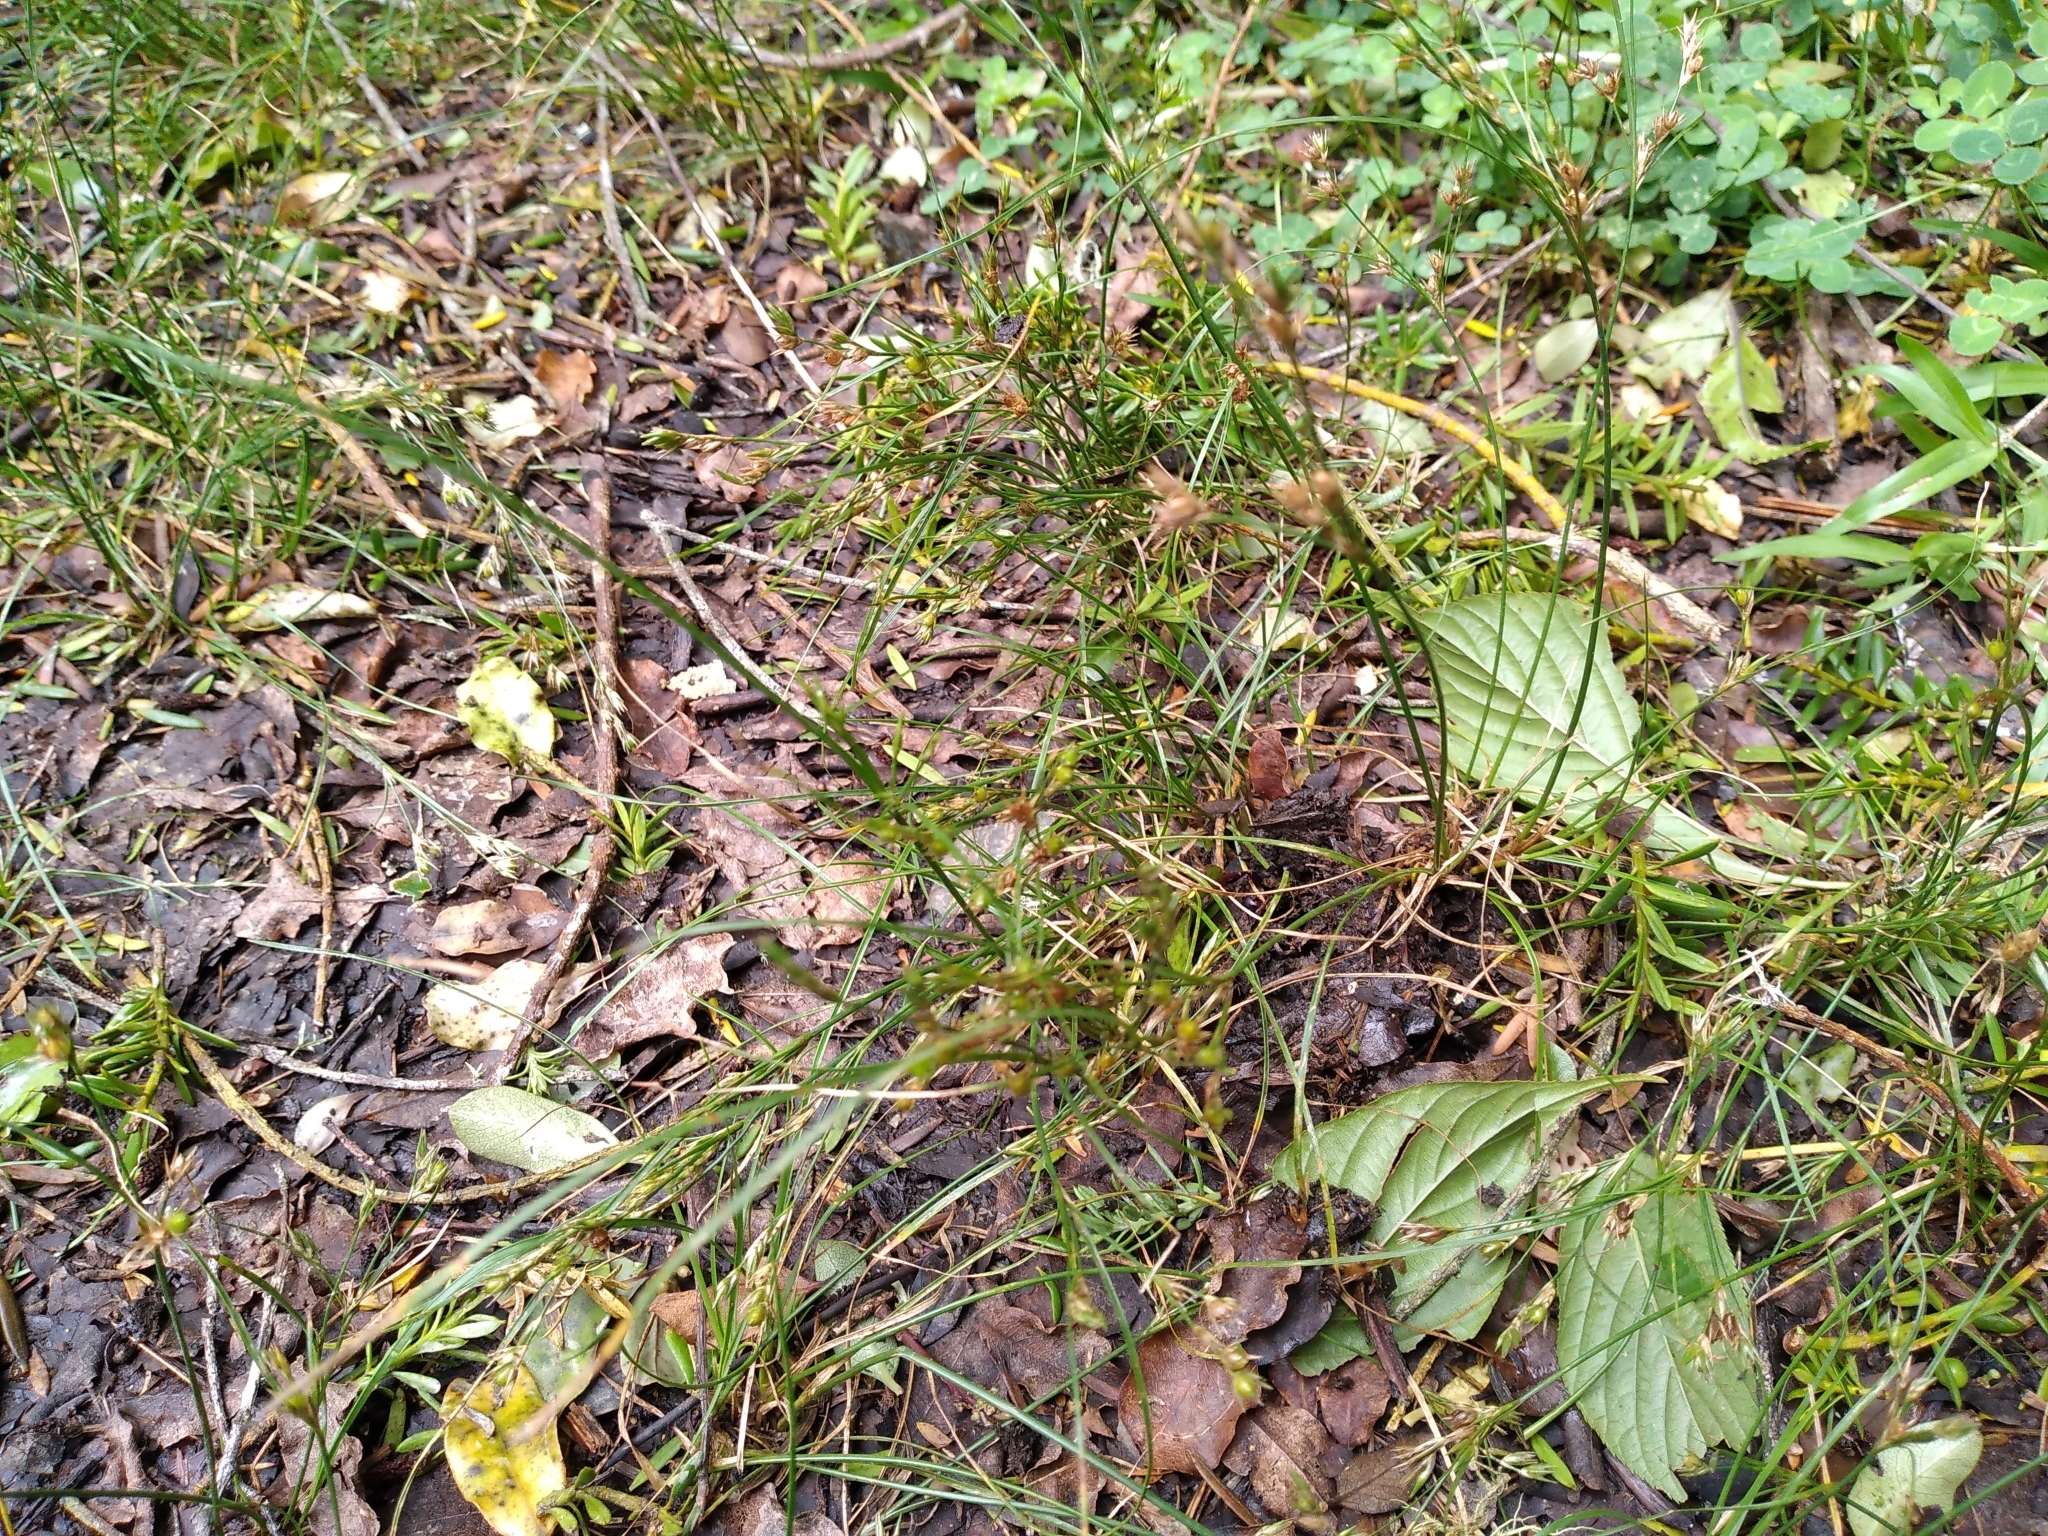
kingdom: Plantae
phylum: Tracheophyta
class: Liliopsida
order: Poales
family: Juncaceae
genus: Juncus
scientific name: Juncus tenuis
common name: Slender rush
